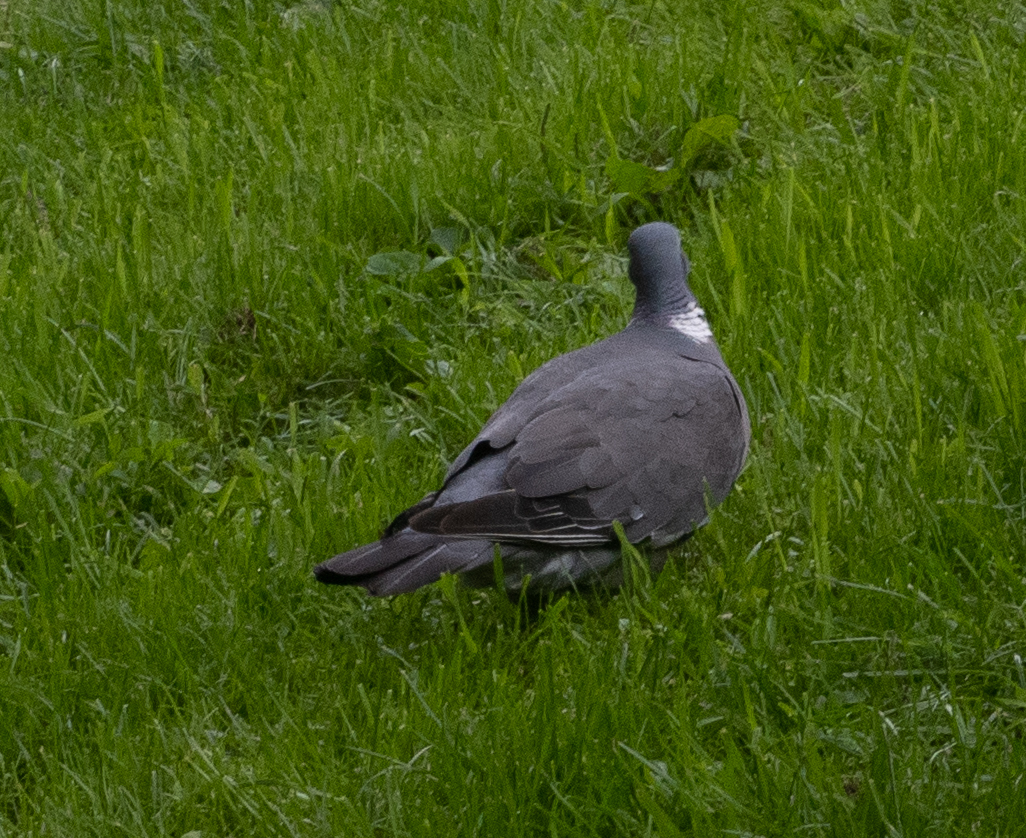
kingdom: Animalia
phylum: Chordata
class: Aves
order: Columbiformes
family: Columbidae
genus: Columba
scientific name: Columba palumbus
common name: Common wood pigeon
